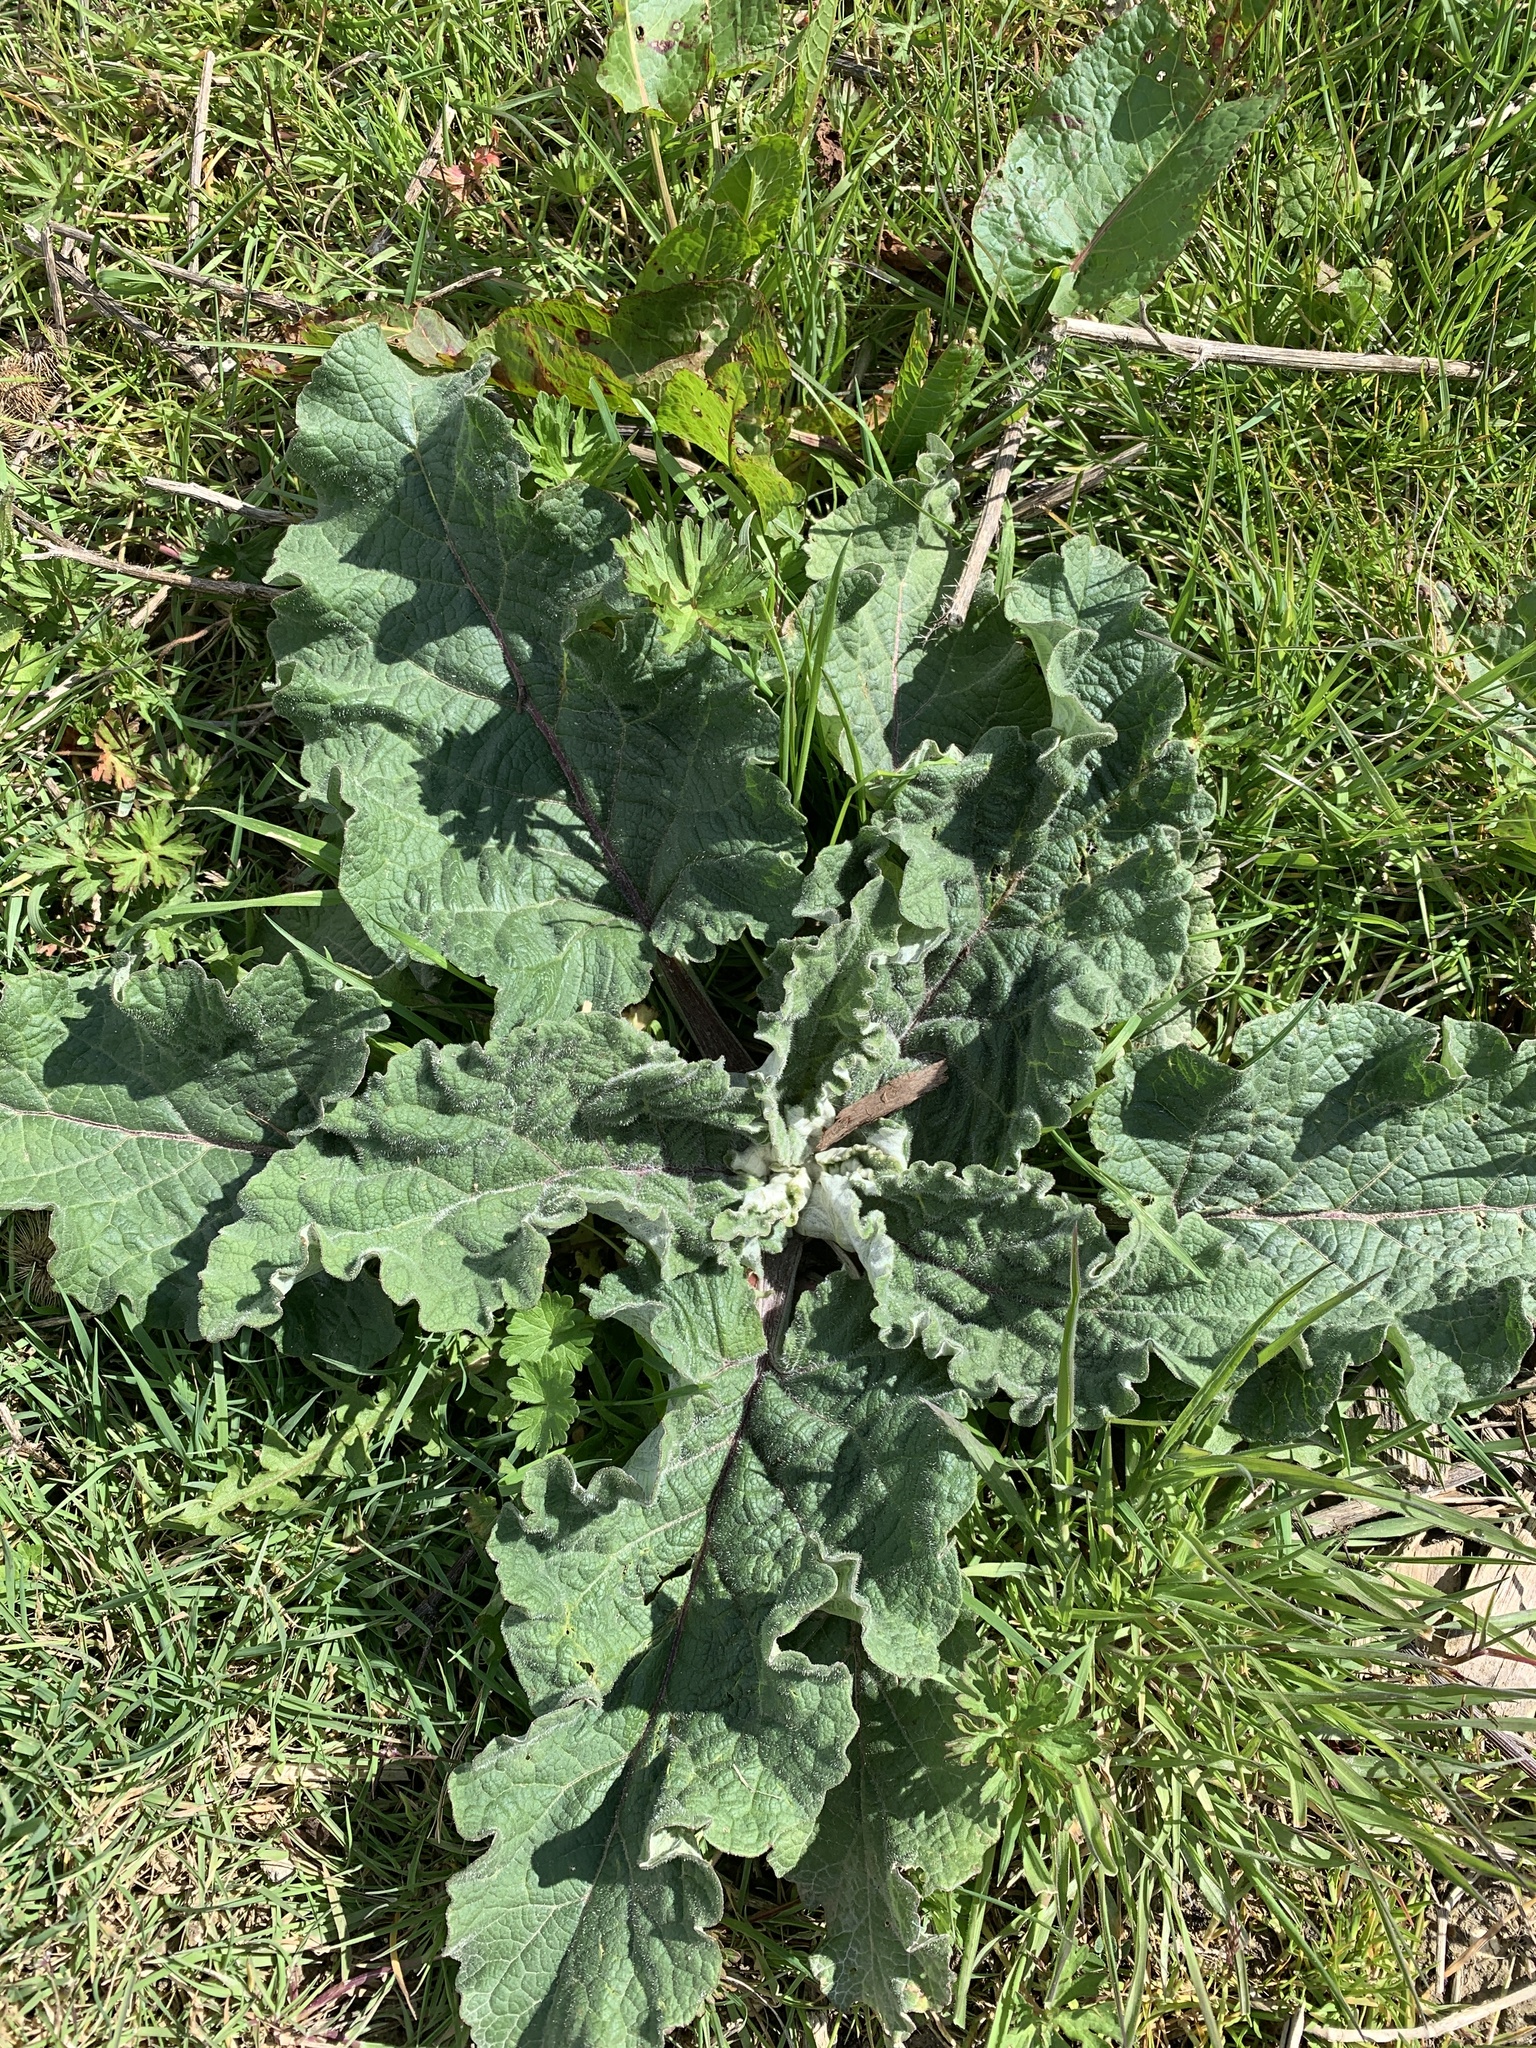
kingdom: Plantae
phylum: Tracheophyta
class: Magnoliopsida
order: Asterales
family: Asteraceae
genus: Arctium
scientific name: Arctium lappa
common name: Greater burdock
